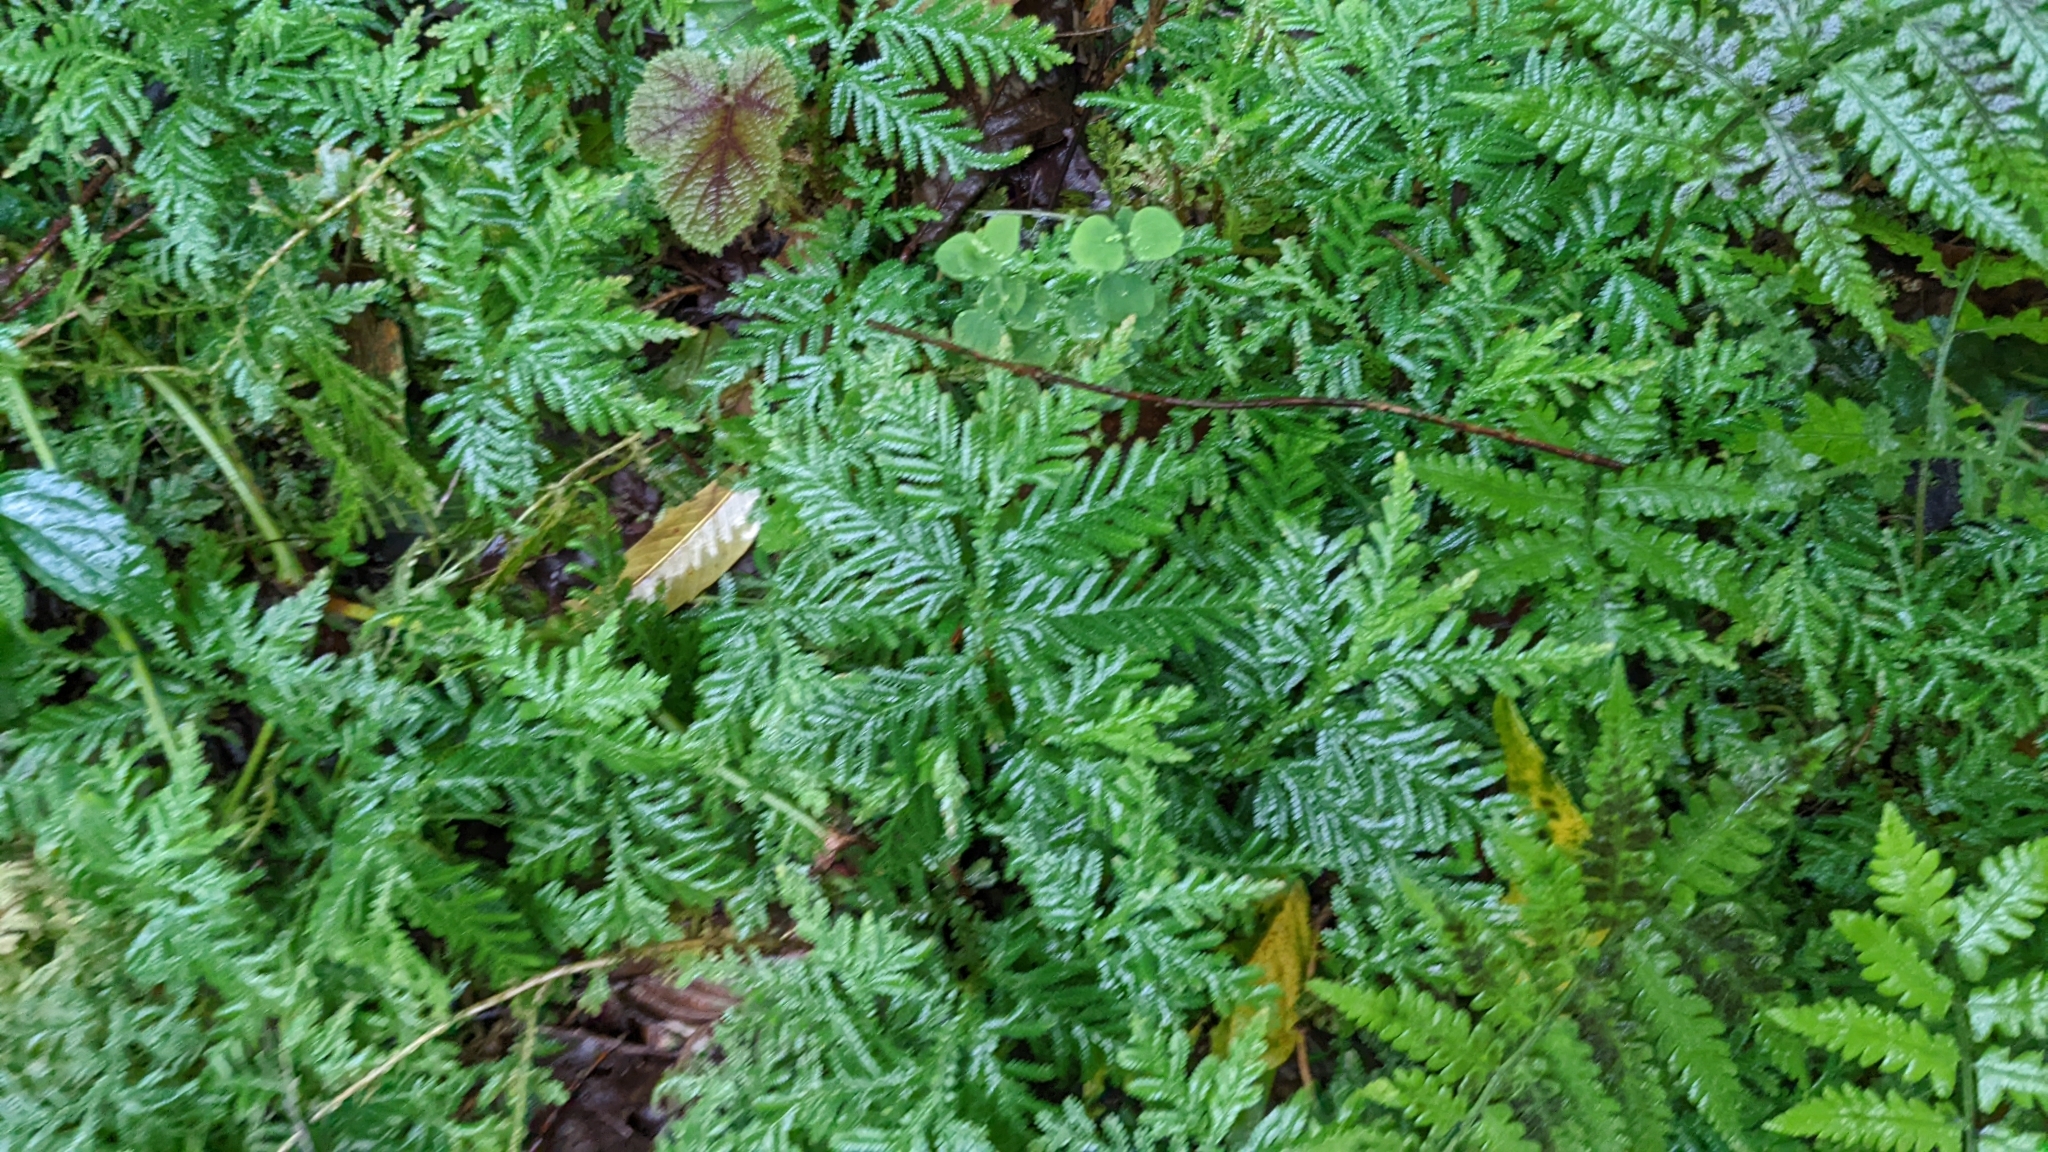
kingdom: Plantae
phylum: Tracheophyta
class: Lycopodiopsida
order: Selaginellales
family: Selaginellaceae
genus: Selaginella
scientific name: Selaginella delicatula
